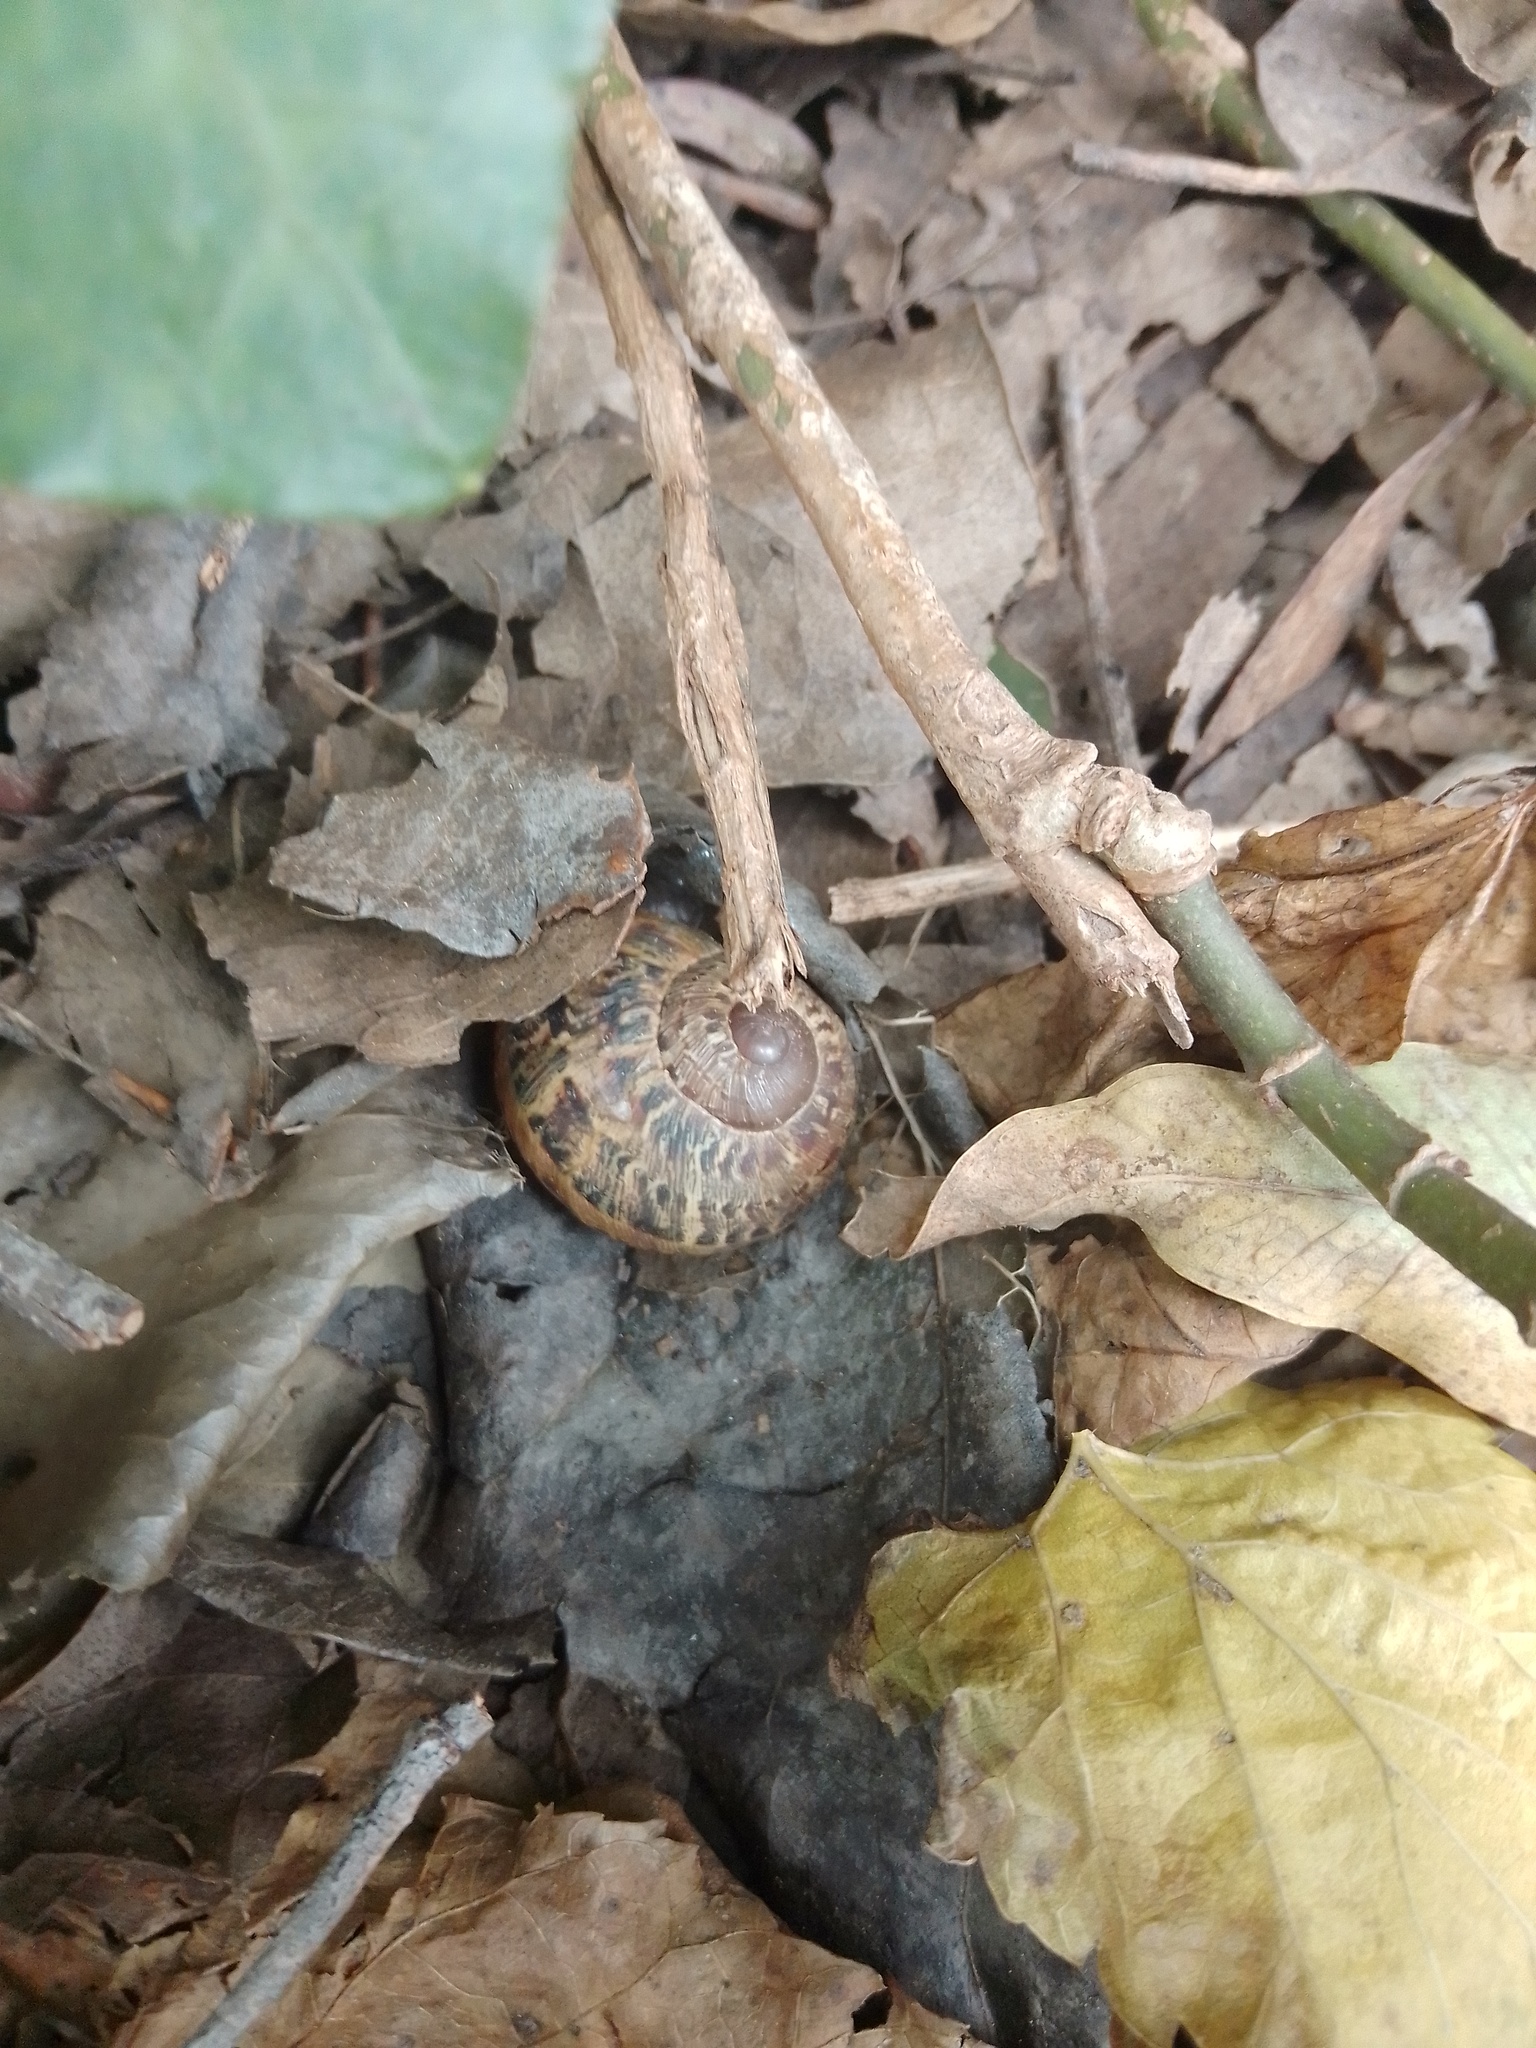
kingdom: Animalia
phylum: Mollusca
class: Gastropoda
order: Stylommatophora
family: Helicidae
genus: Cornu
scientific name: Cornu aspersum
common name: Brown garden snail
